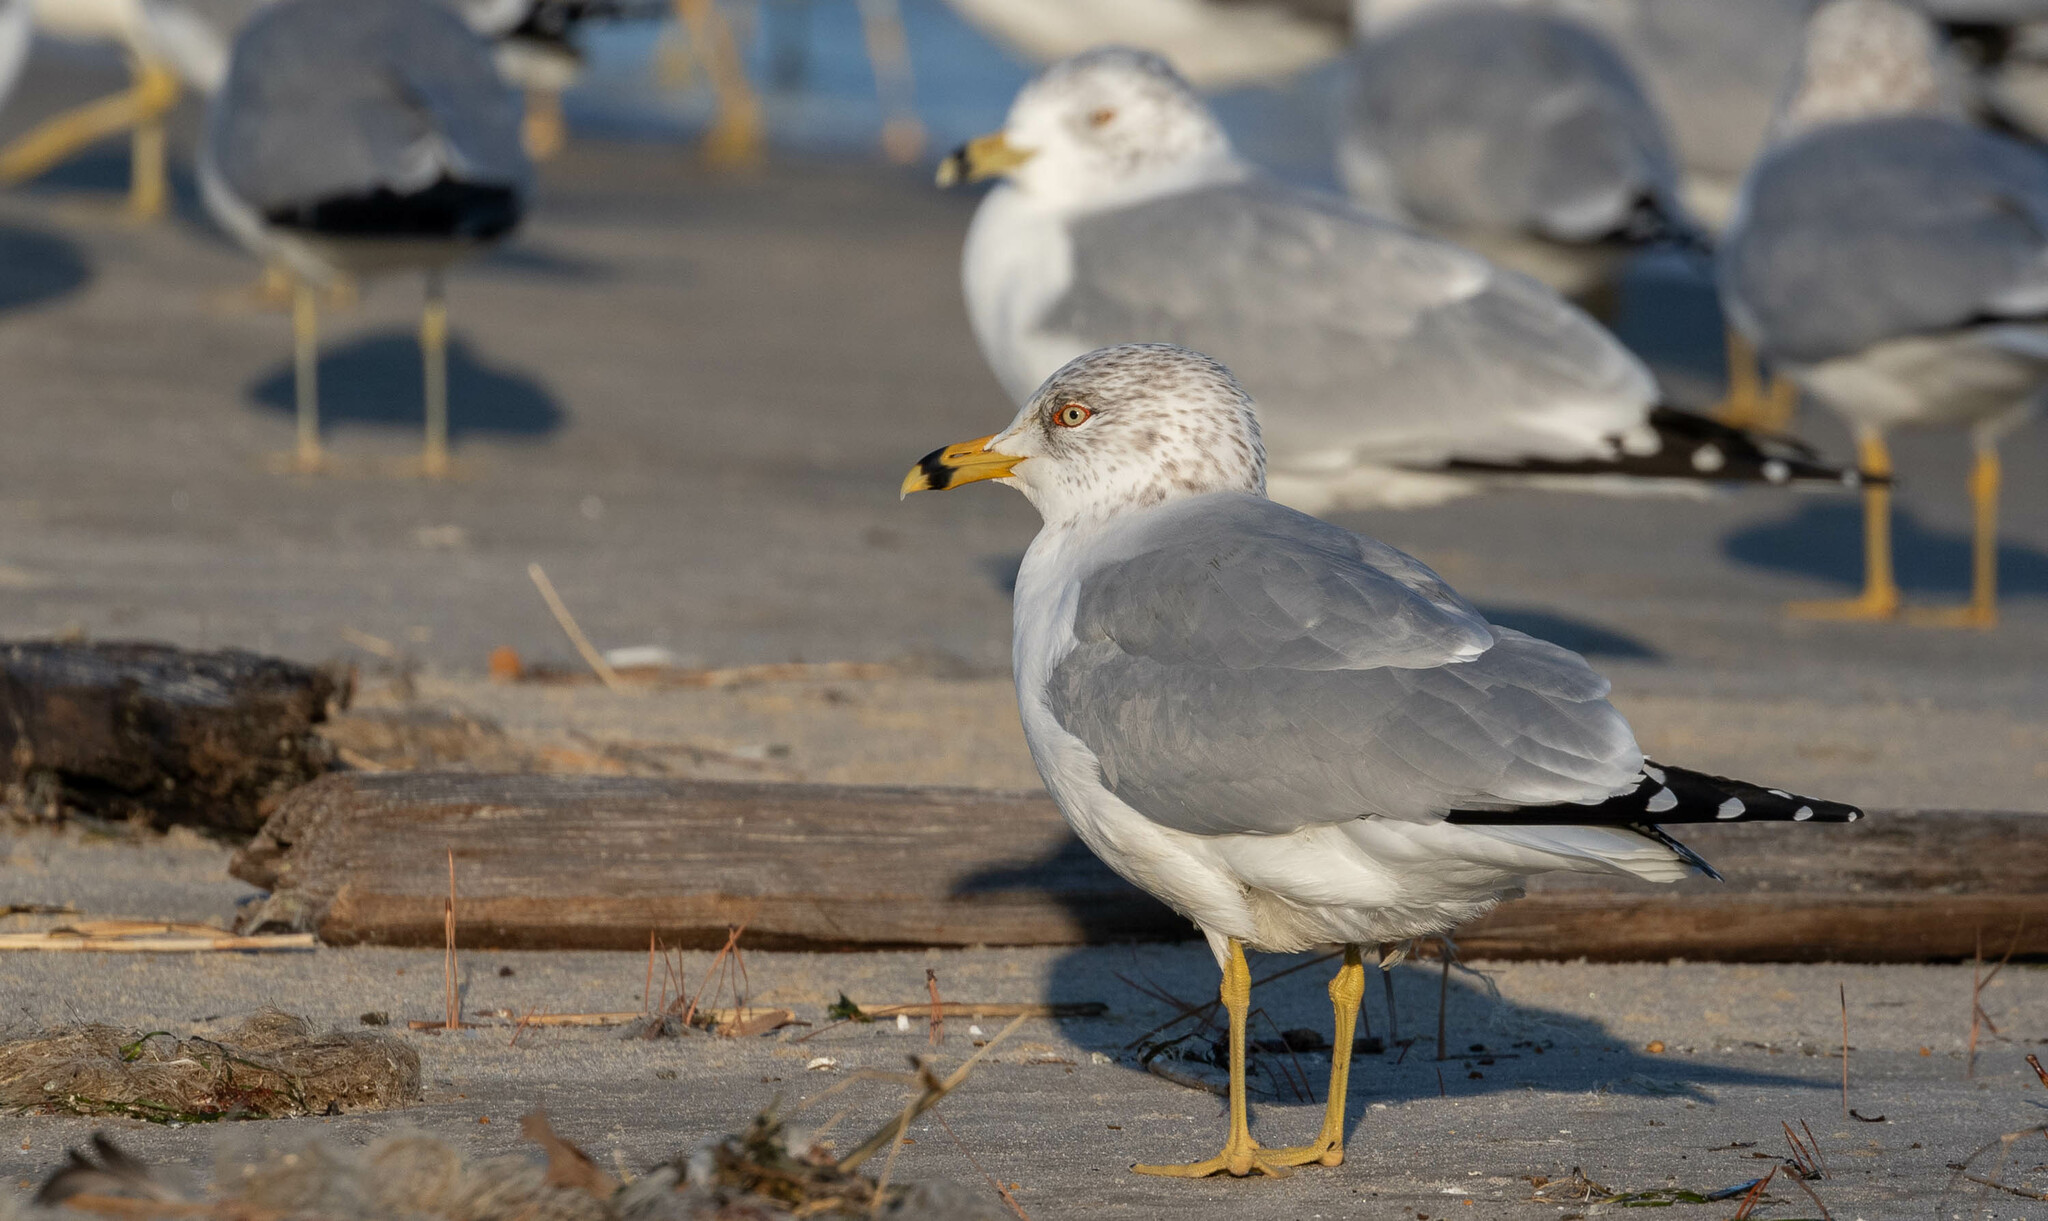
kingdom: Animalia
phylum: Chordata
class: Aves
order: Charadriiformes
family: Laridae
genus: Larus
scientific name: Larus delawarensis
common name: Ring-billed gull
